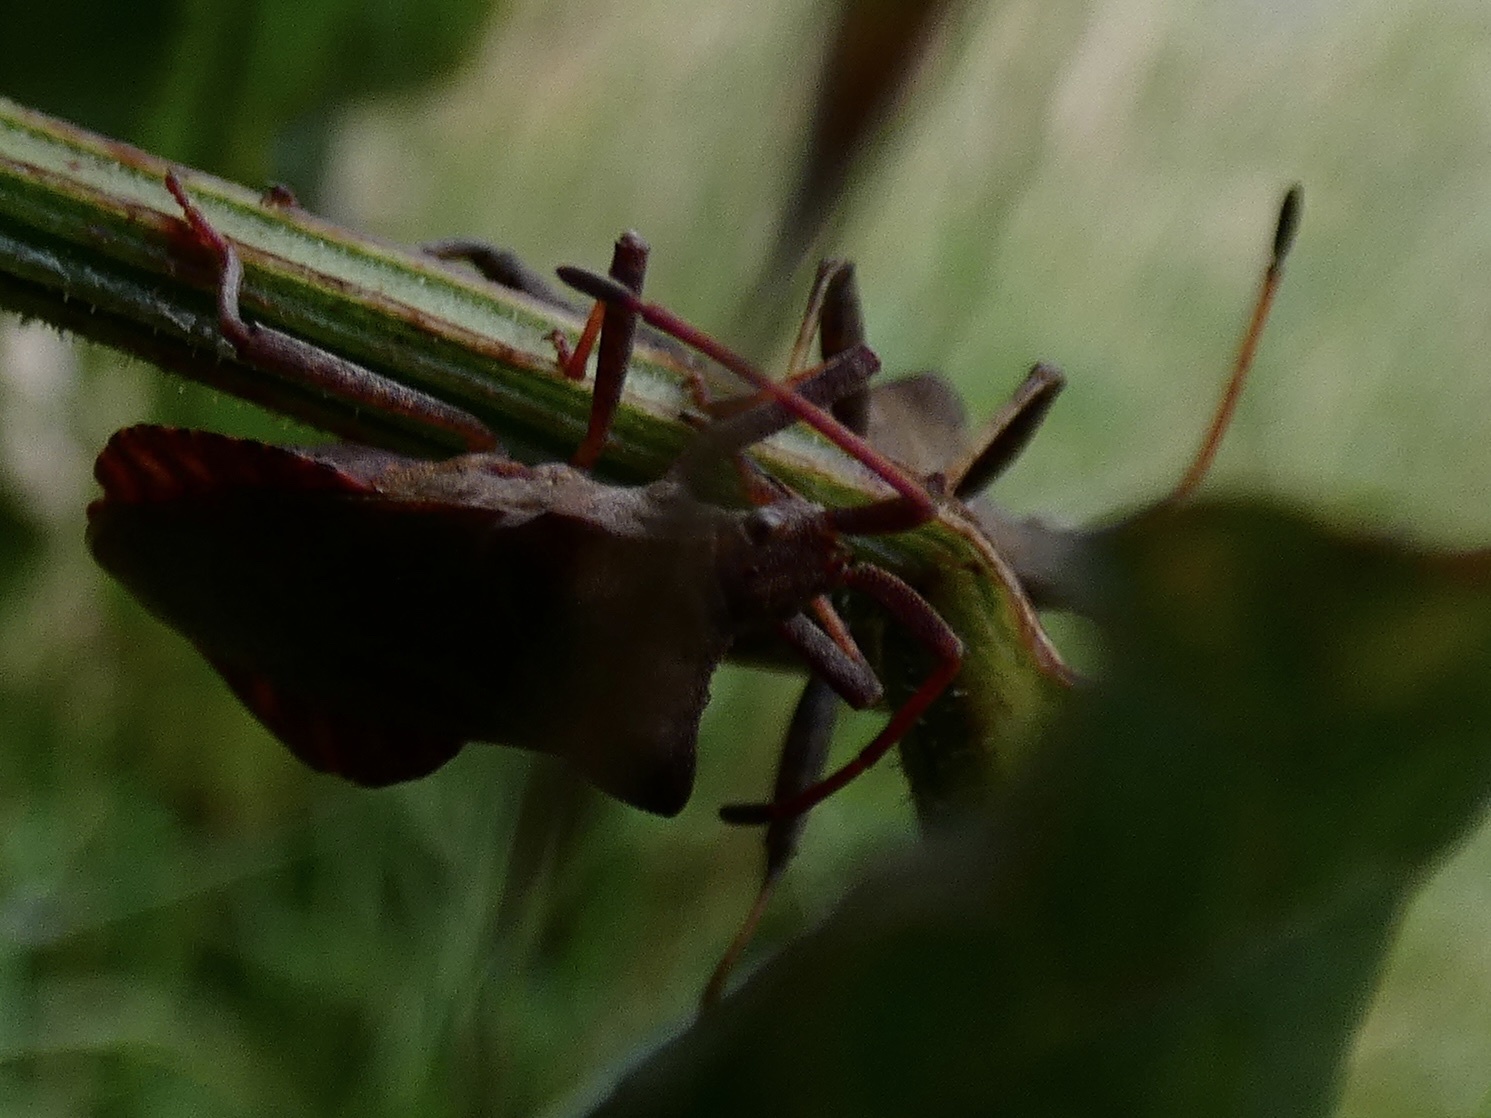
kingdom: Animalia
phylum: Arthropoda
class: Insecta
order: Hemiptera
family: Coreidae
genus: Coreus
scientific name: Coreus marginatus
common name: Dock bug
